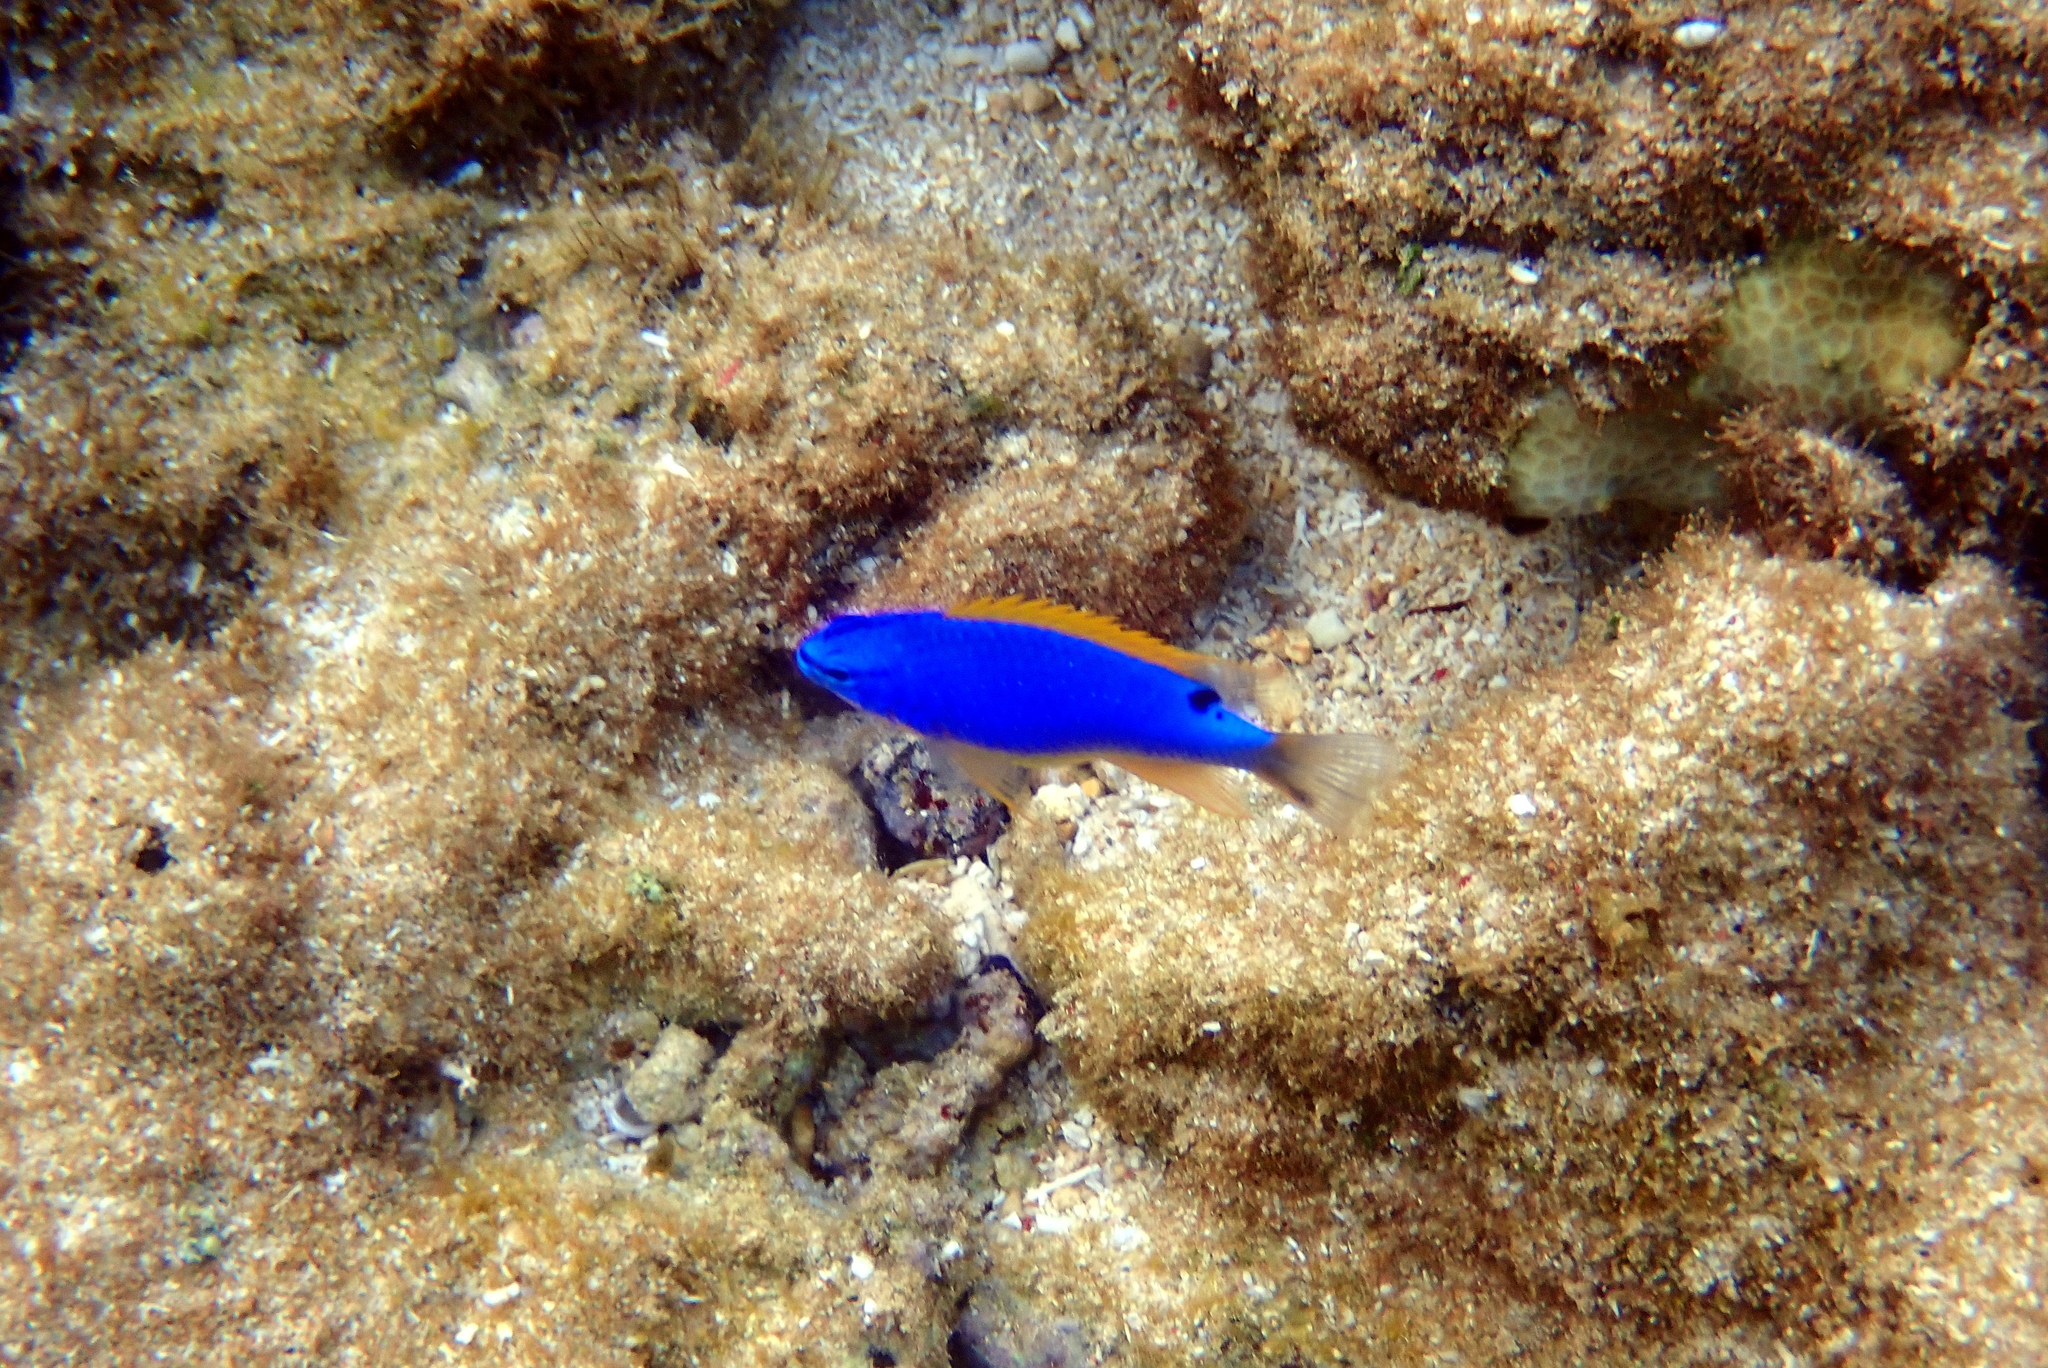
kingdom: Animalia
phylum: Chordata
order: Perciformes
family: Pomacentridae
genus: Chrysiptera
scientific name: Chrysiptera taupou
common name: Fiji damsel
